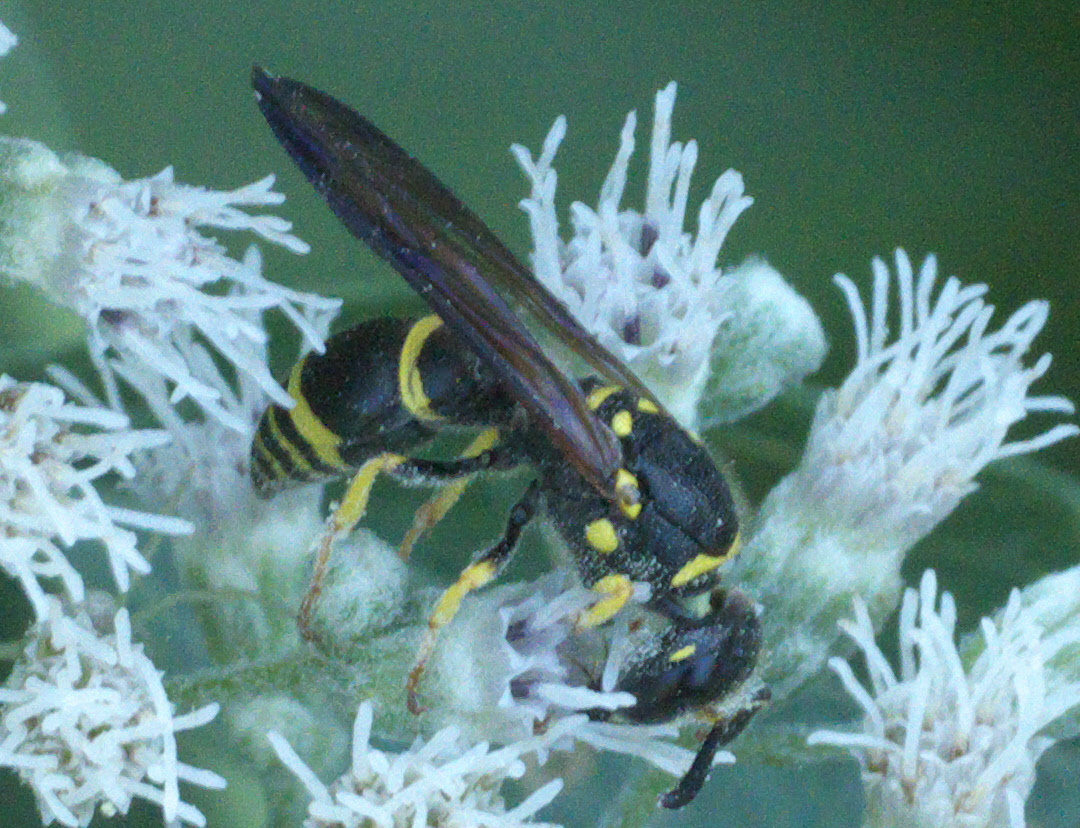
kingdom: Animalia
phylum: Arthropoda
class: Insecta
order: Hymenoptera
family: Vespidae
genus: Ancistrocerus
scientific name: Ancistrocerus adiabatus
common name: Bramble mason wasp
